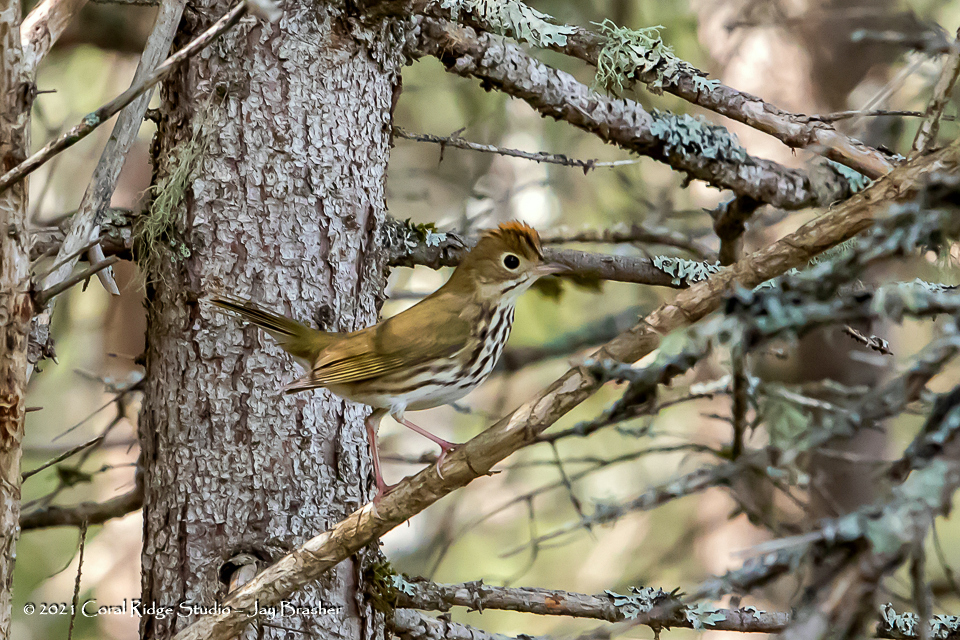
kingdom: Animalia
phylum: Chordata
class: Aves
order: Passeriformes
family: Parulidae
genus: Seiurus
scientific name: Seiurus aurocapilla
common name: Ovenbird
